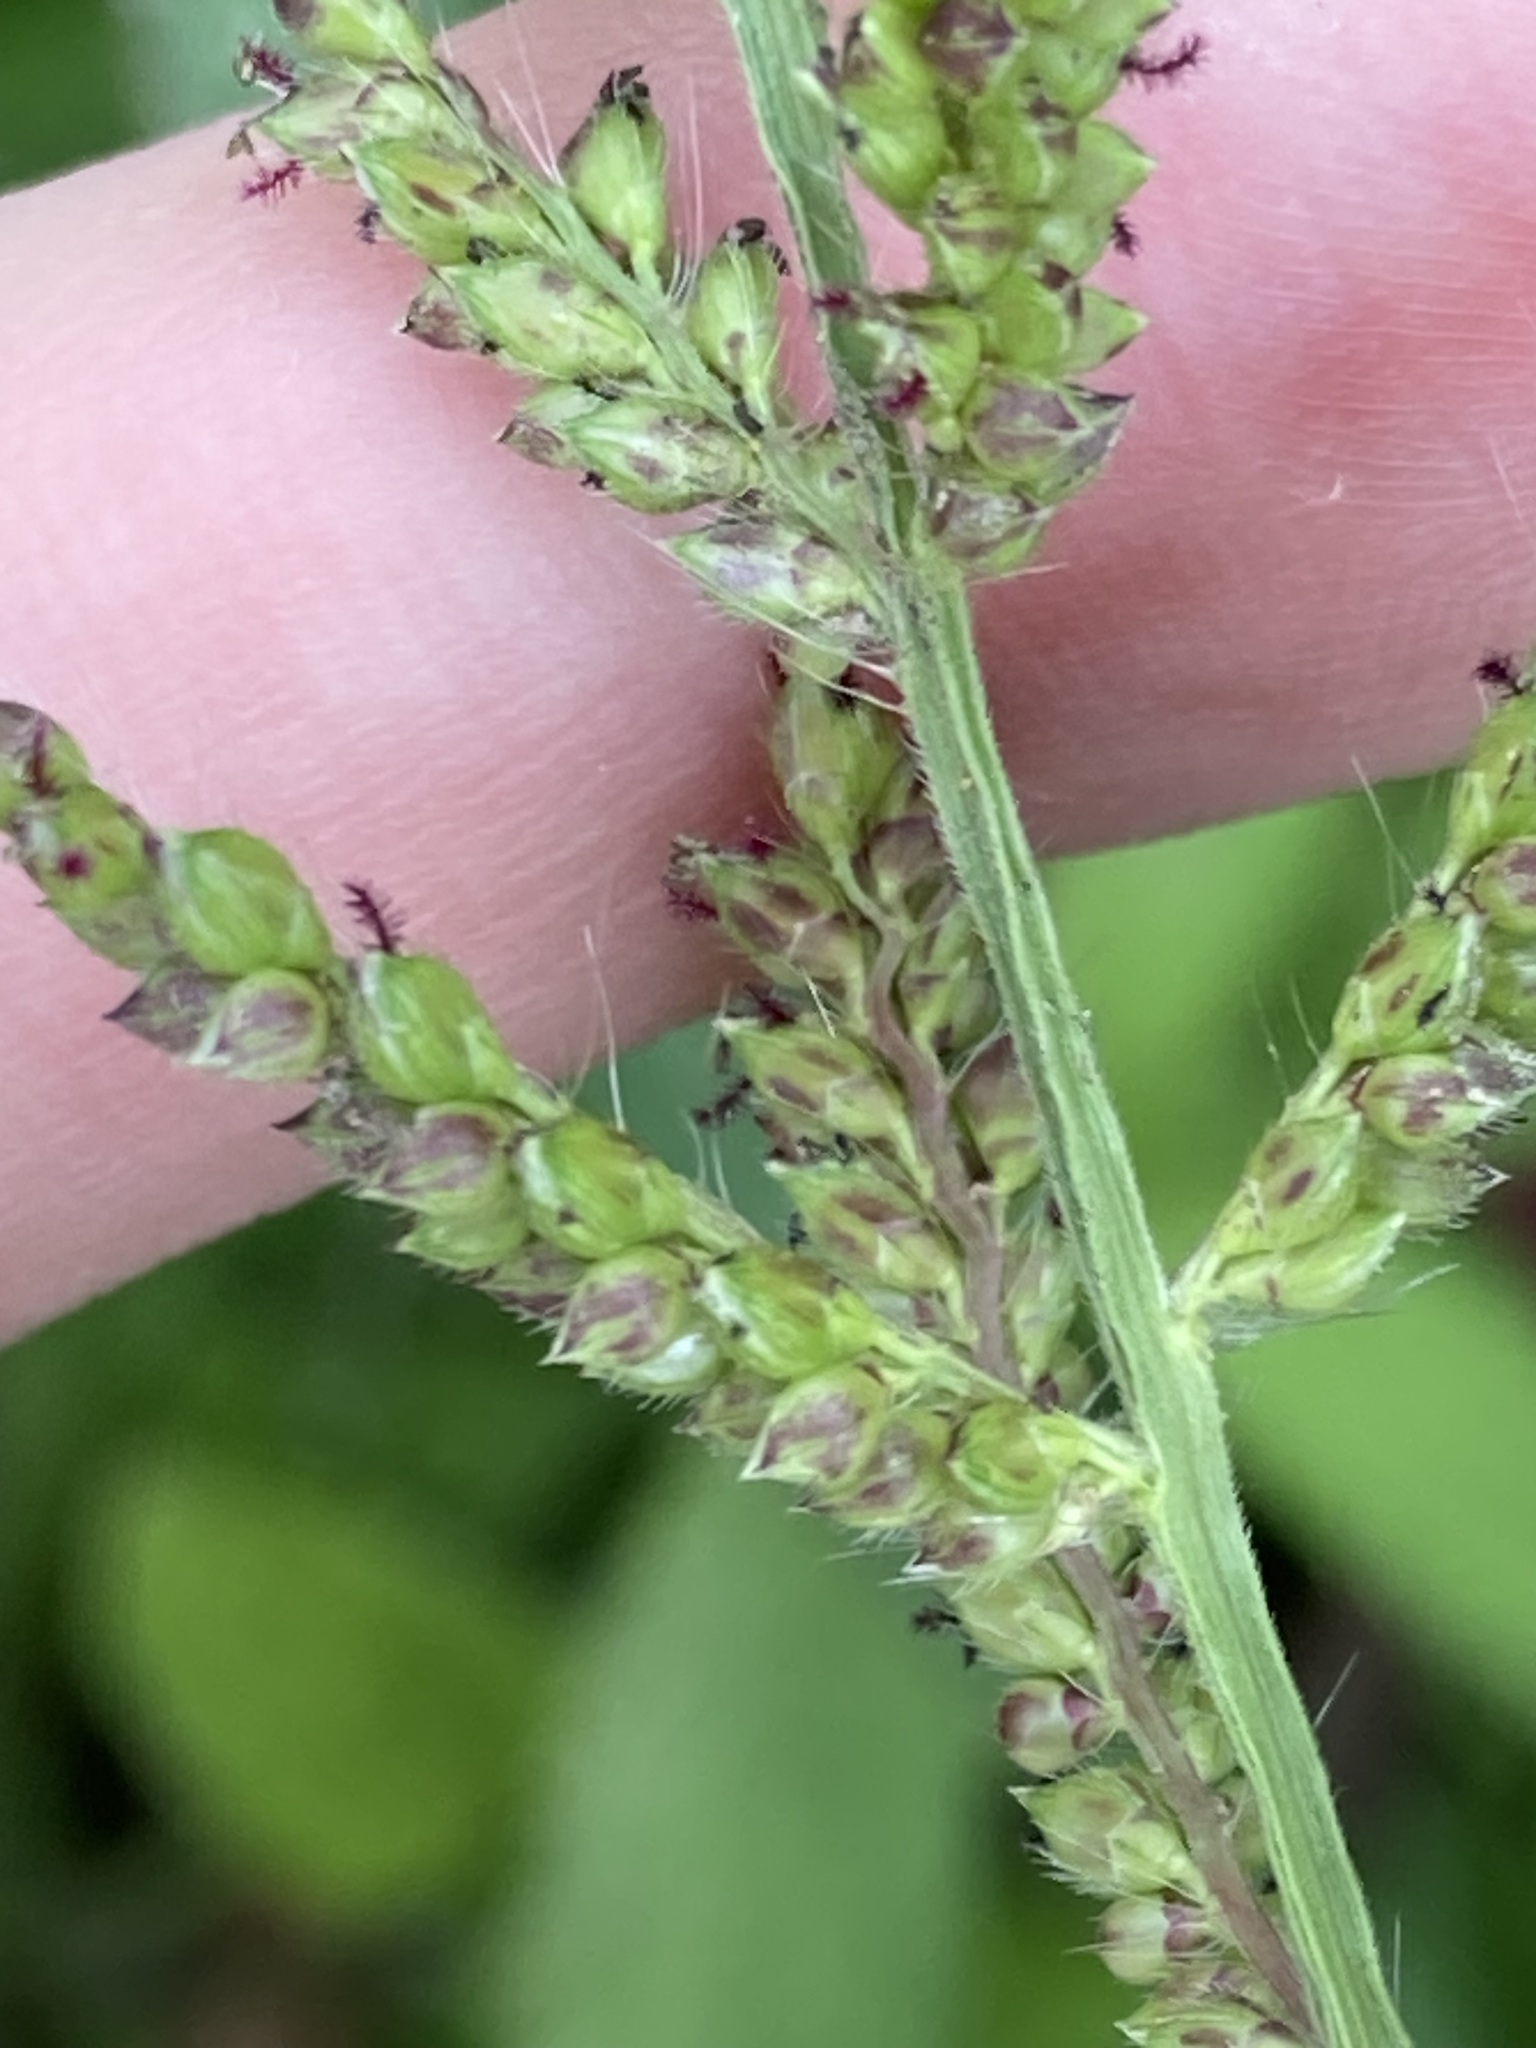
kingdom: Plantae
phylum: Tracheophyta
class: Liliopsida
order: Poales
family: Poaceae
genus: Echinochloa
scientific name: Echinochloa crus-galli
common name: Cockspur
